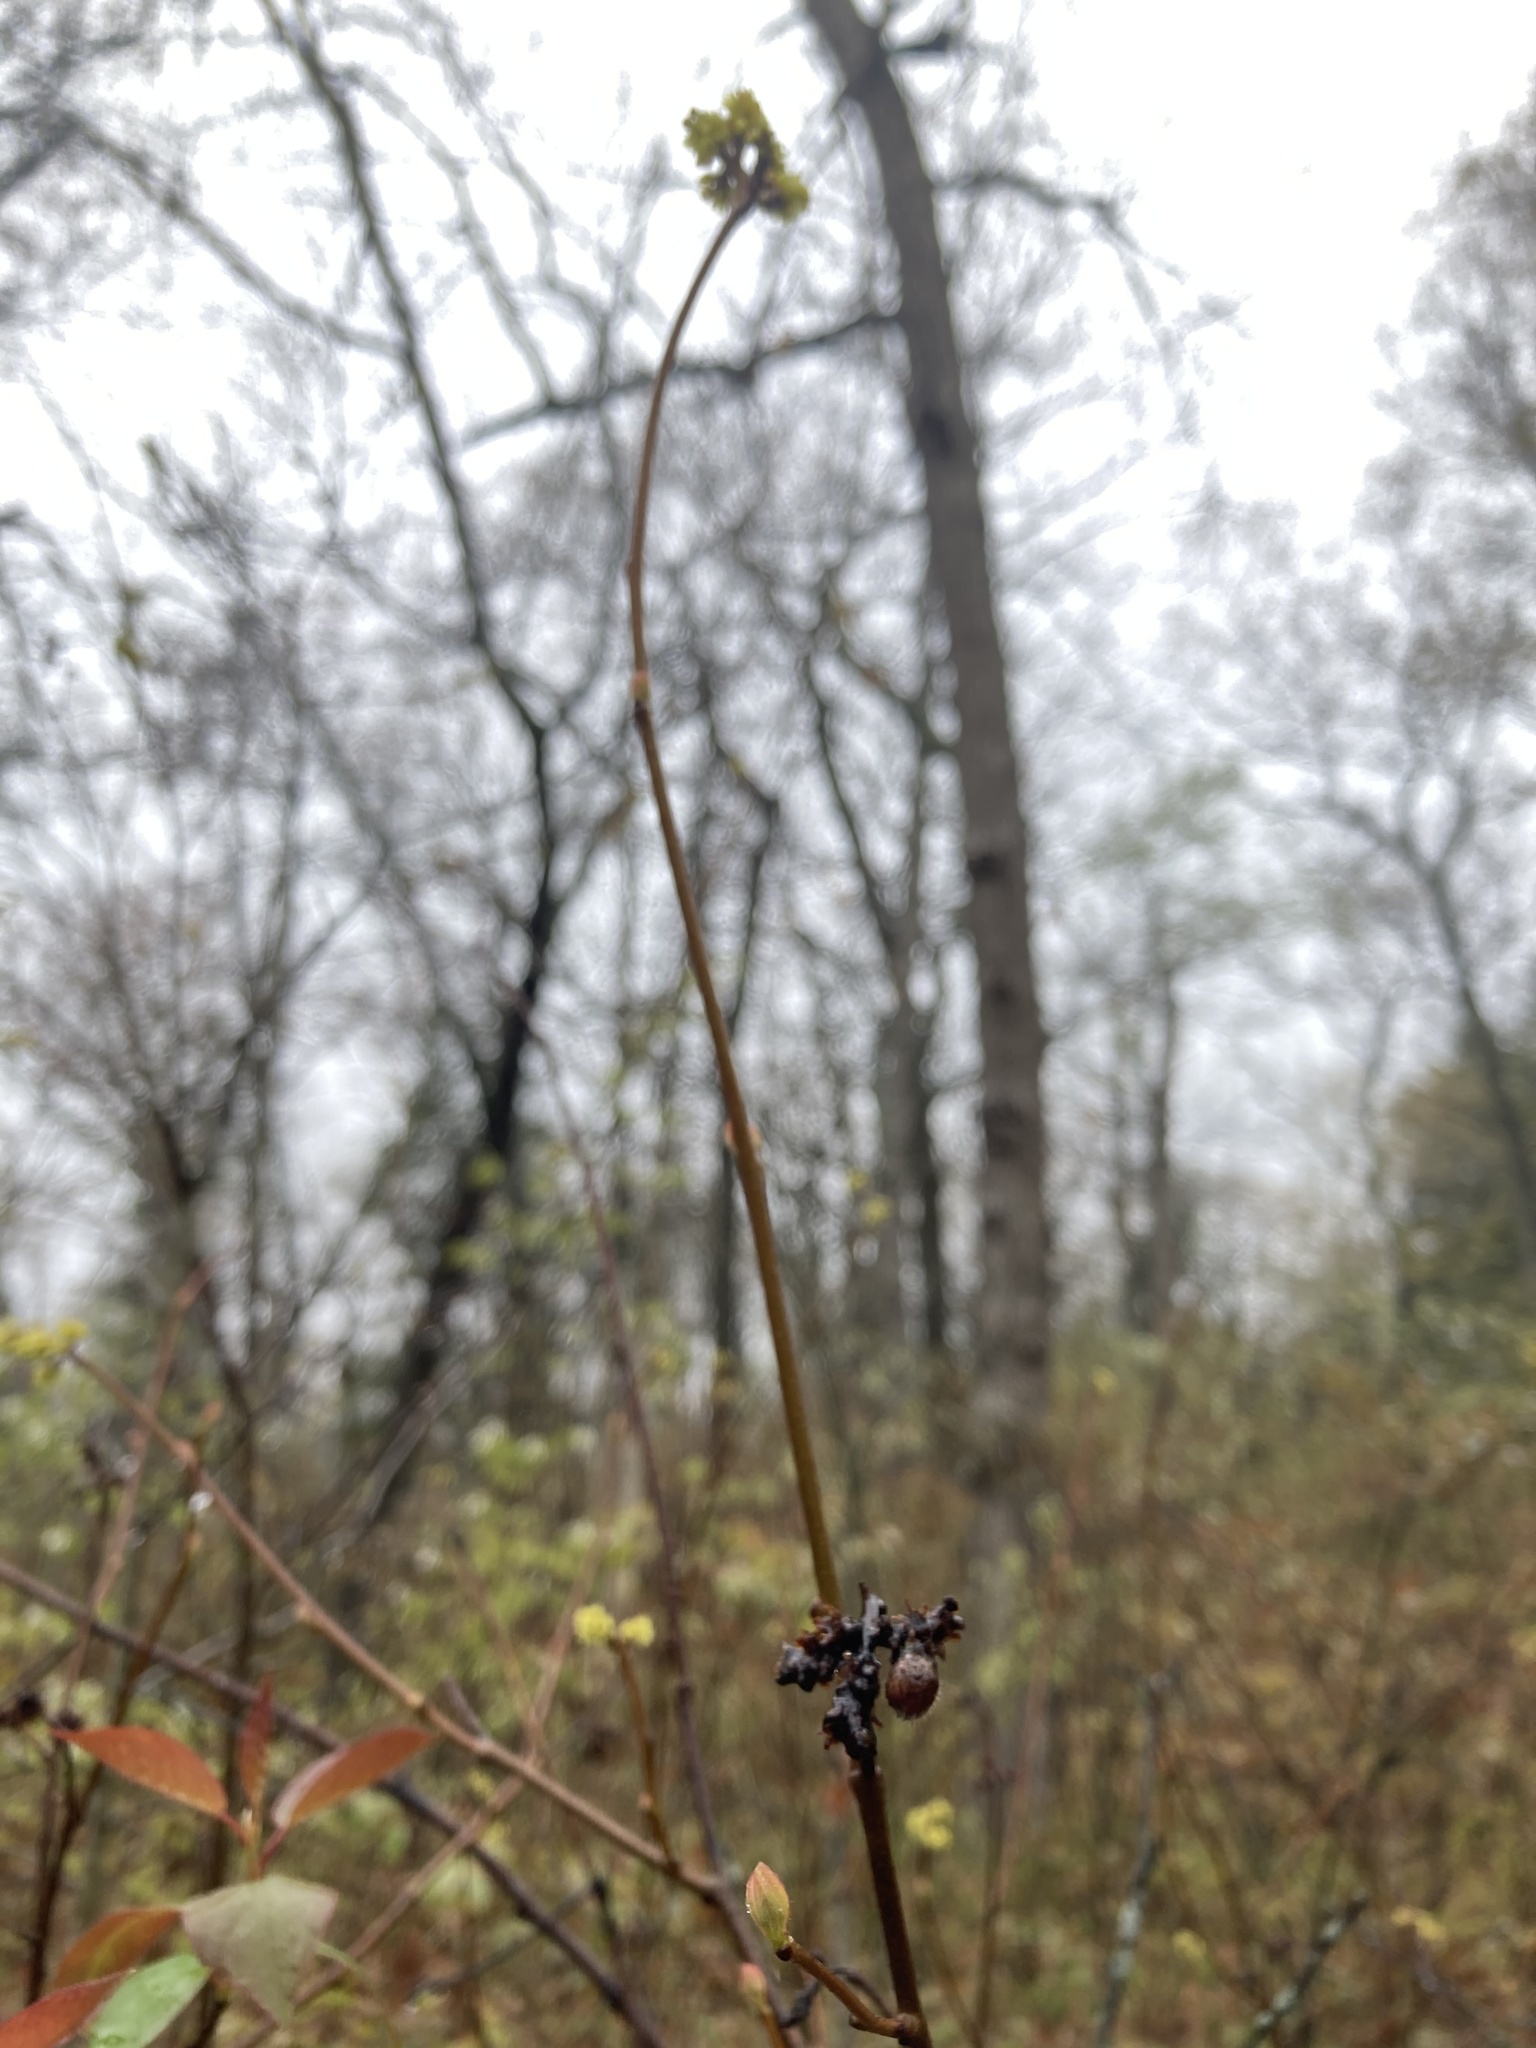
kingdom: Plantae
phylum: Tracheophyta
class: Magnoliopsida
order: Sapindales
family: Anacardiaceae
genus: Rhus
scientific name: Rhus aromatica
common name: Aromatic sumac
